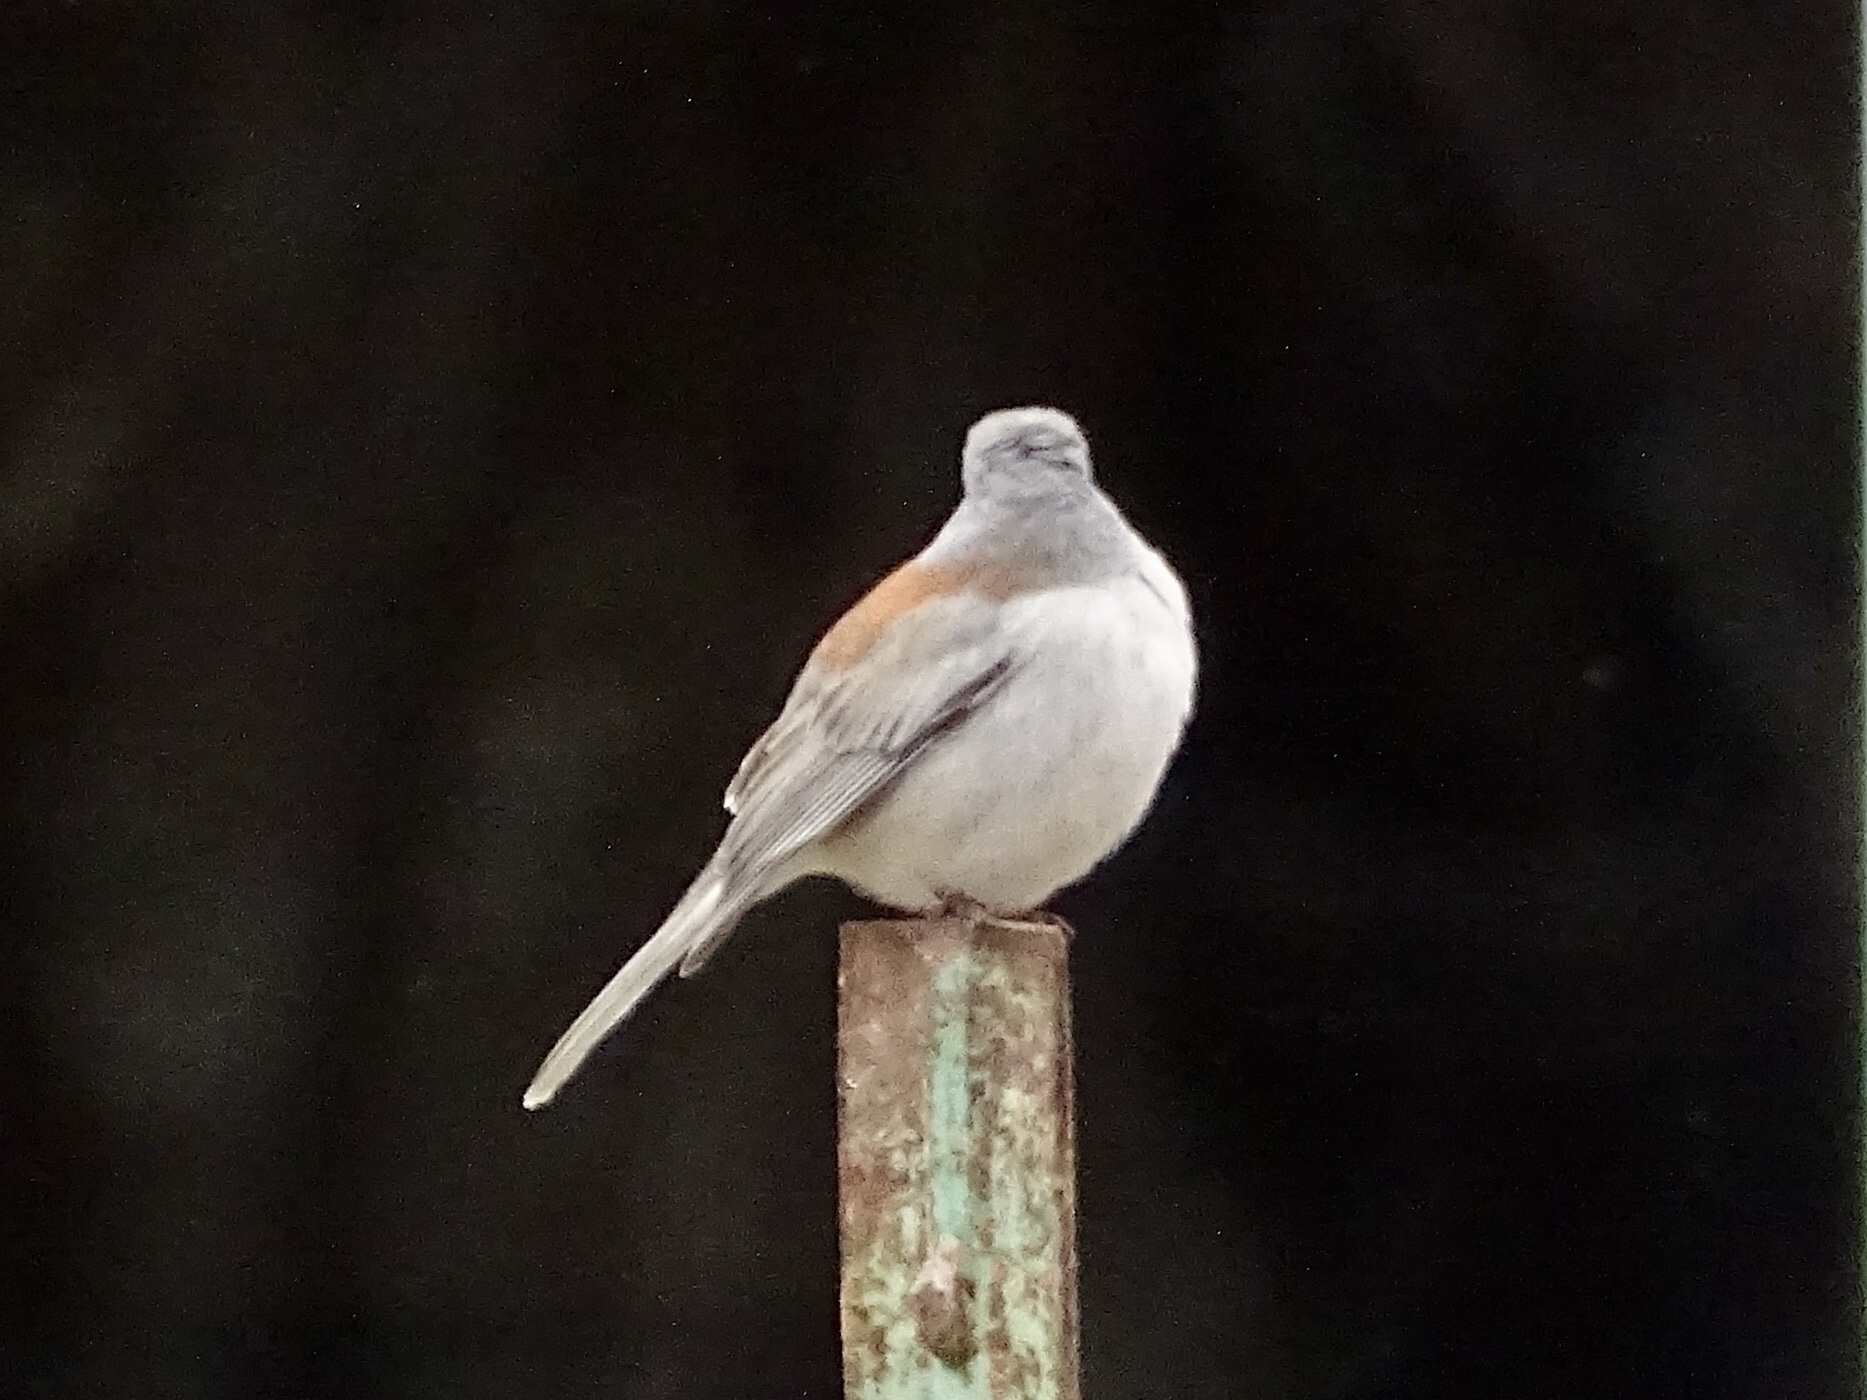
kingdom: Animalia
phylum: Chordata
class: Aves
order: Passeriformes
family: Passerellidae
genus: Junco
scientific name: Junco hyemalis
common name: Dark-eyed junco
